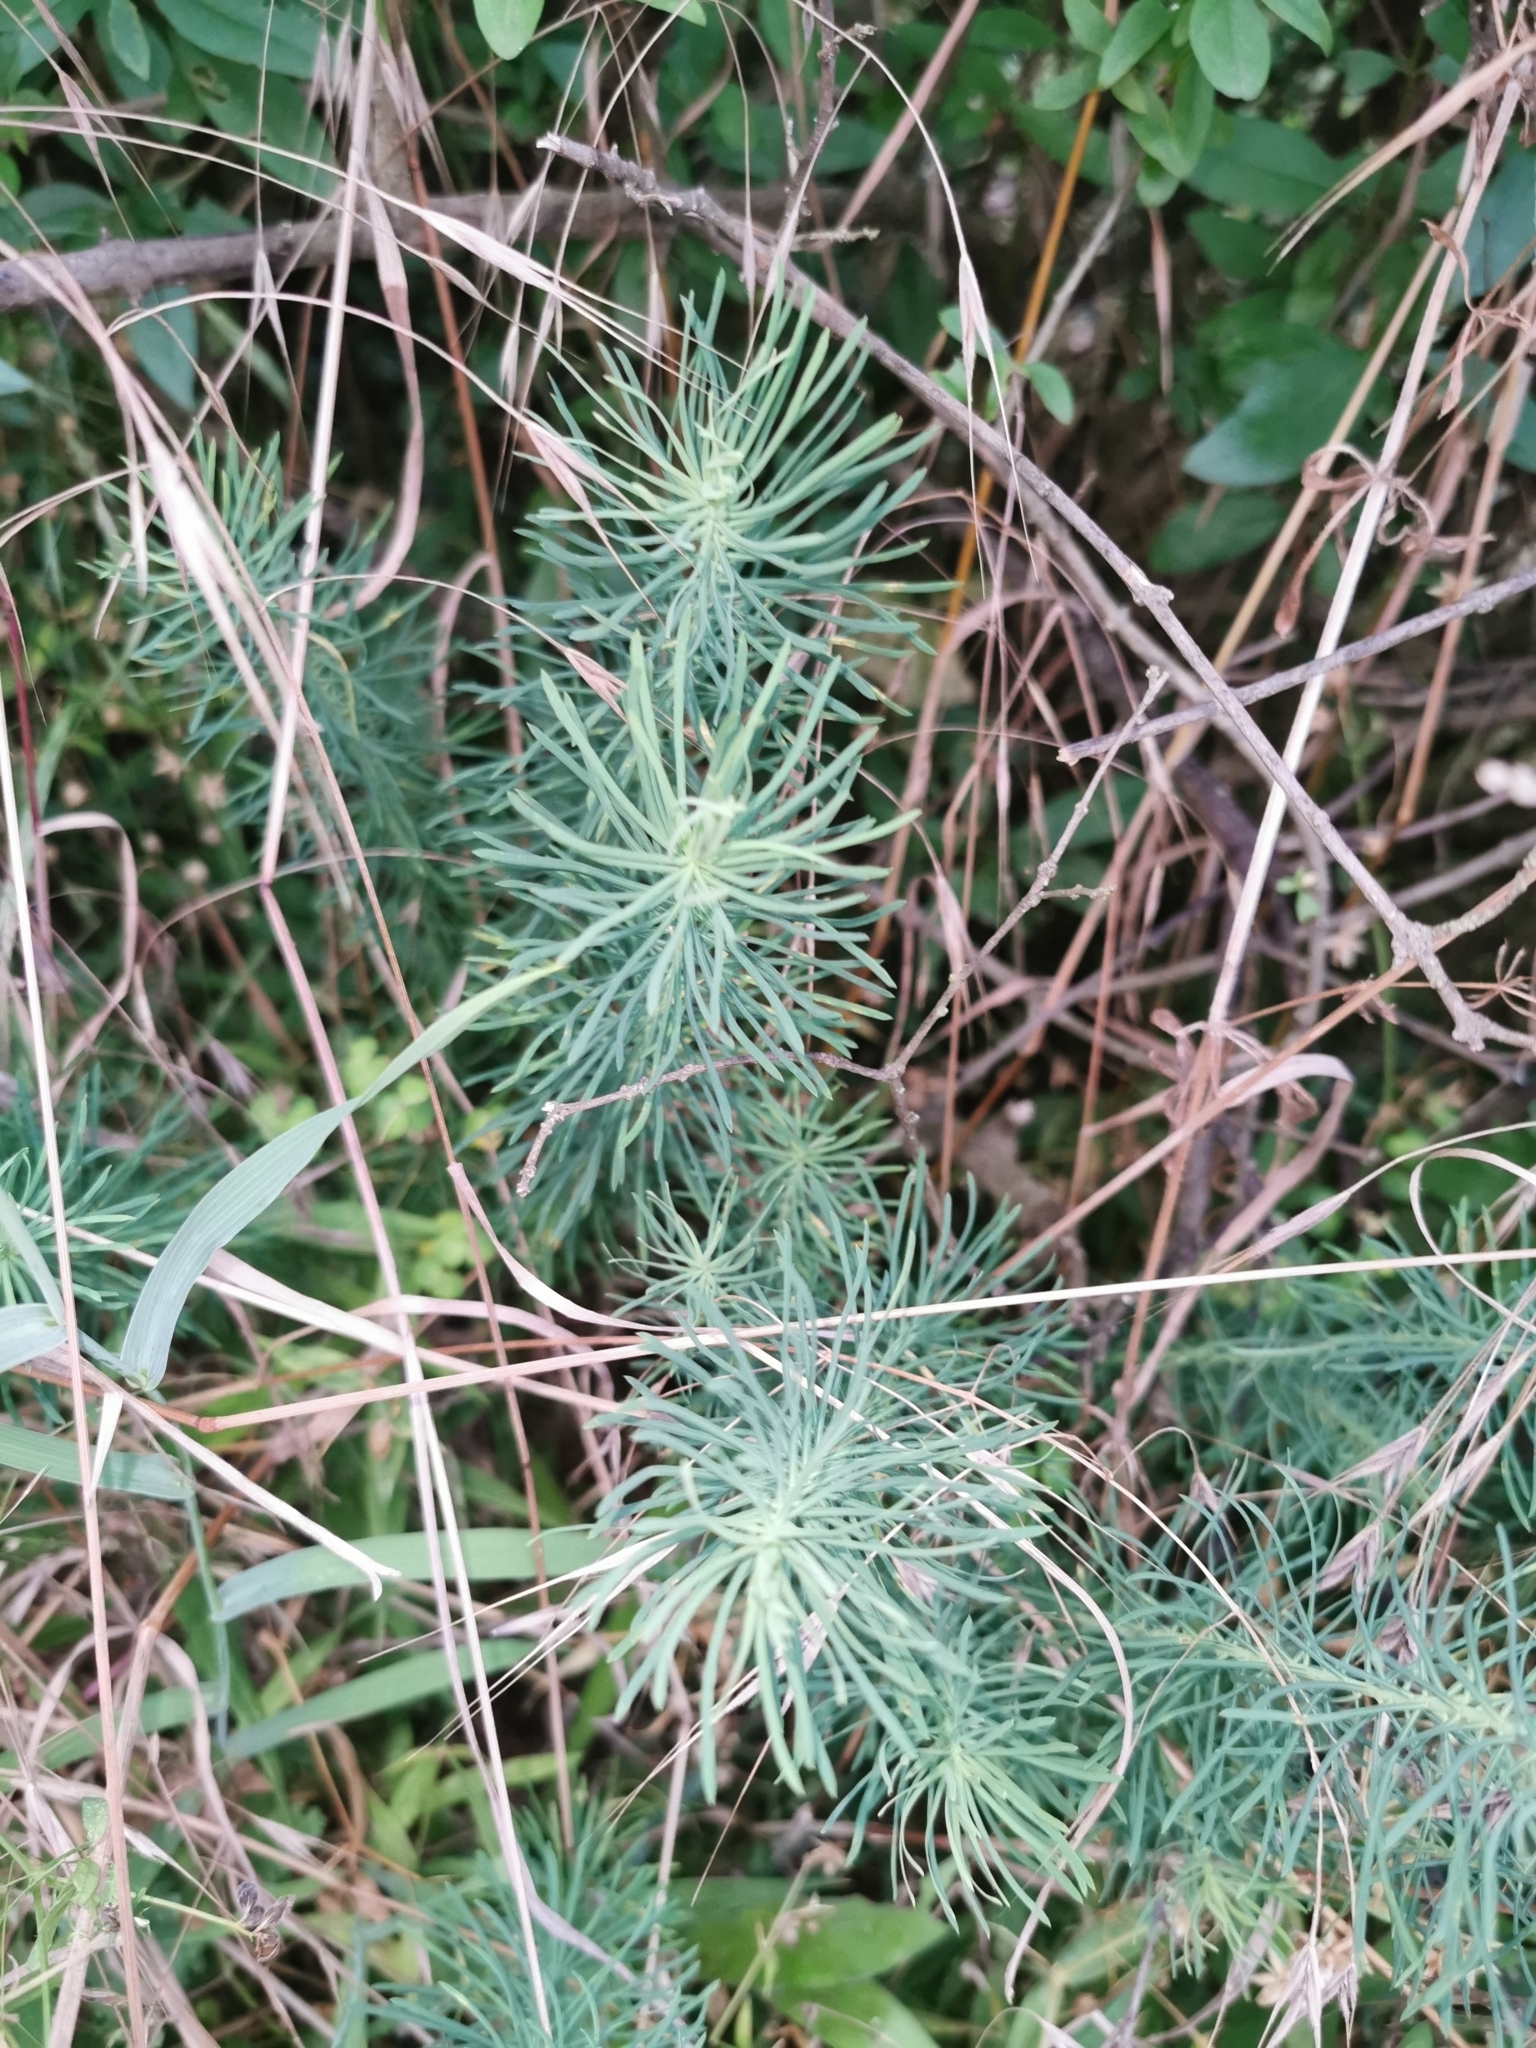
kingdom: Plantae
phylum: Tracheophyta
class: Magnoliopsida
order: Malpighiales
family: Euphorbiaceae
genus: Euphorbia
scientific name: Euphorbia cyparissias
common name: Cypress spurge
